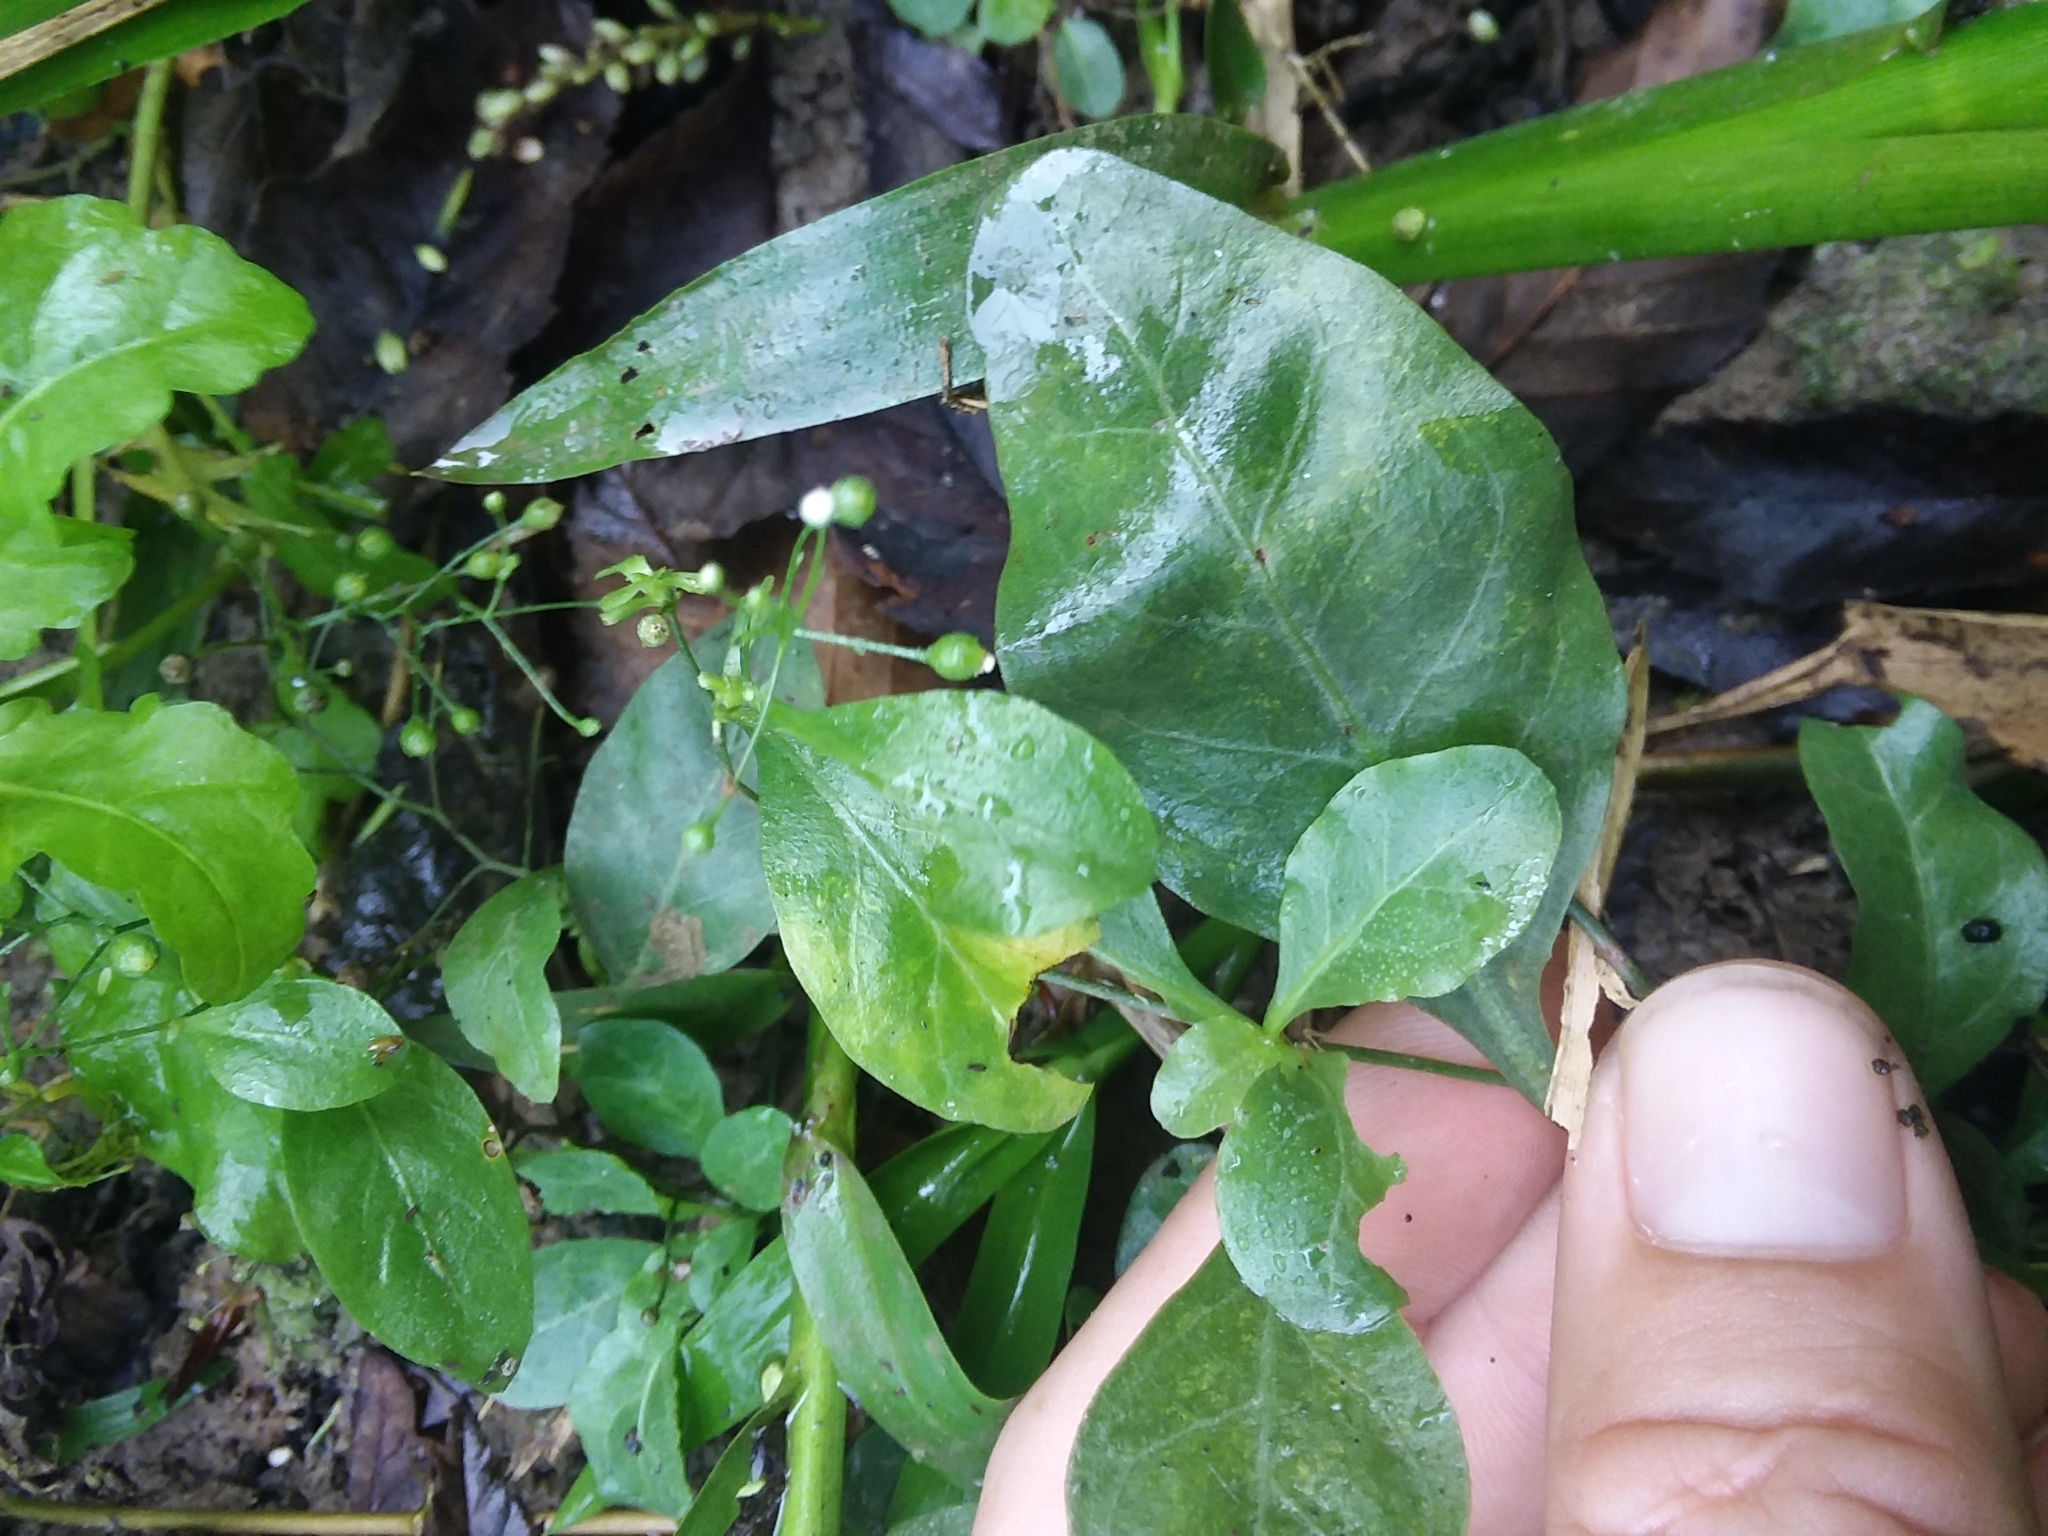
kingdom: Plantae
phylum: Tracheophyta
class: Magnoliopsida
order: Ericales
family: Primulaceae
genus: Samolus
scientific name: Samolus parviflorus
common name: False water pimpernel
